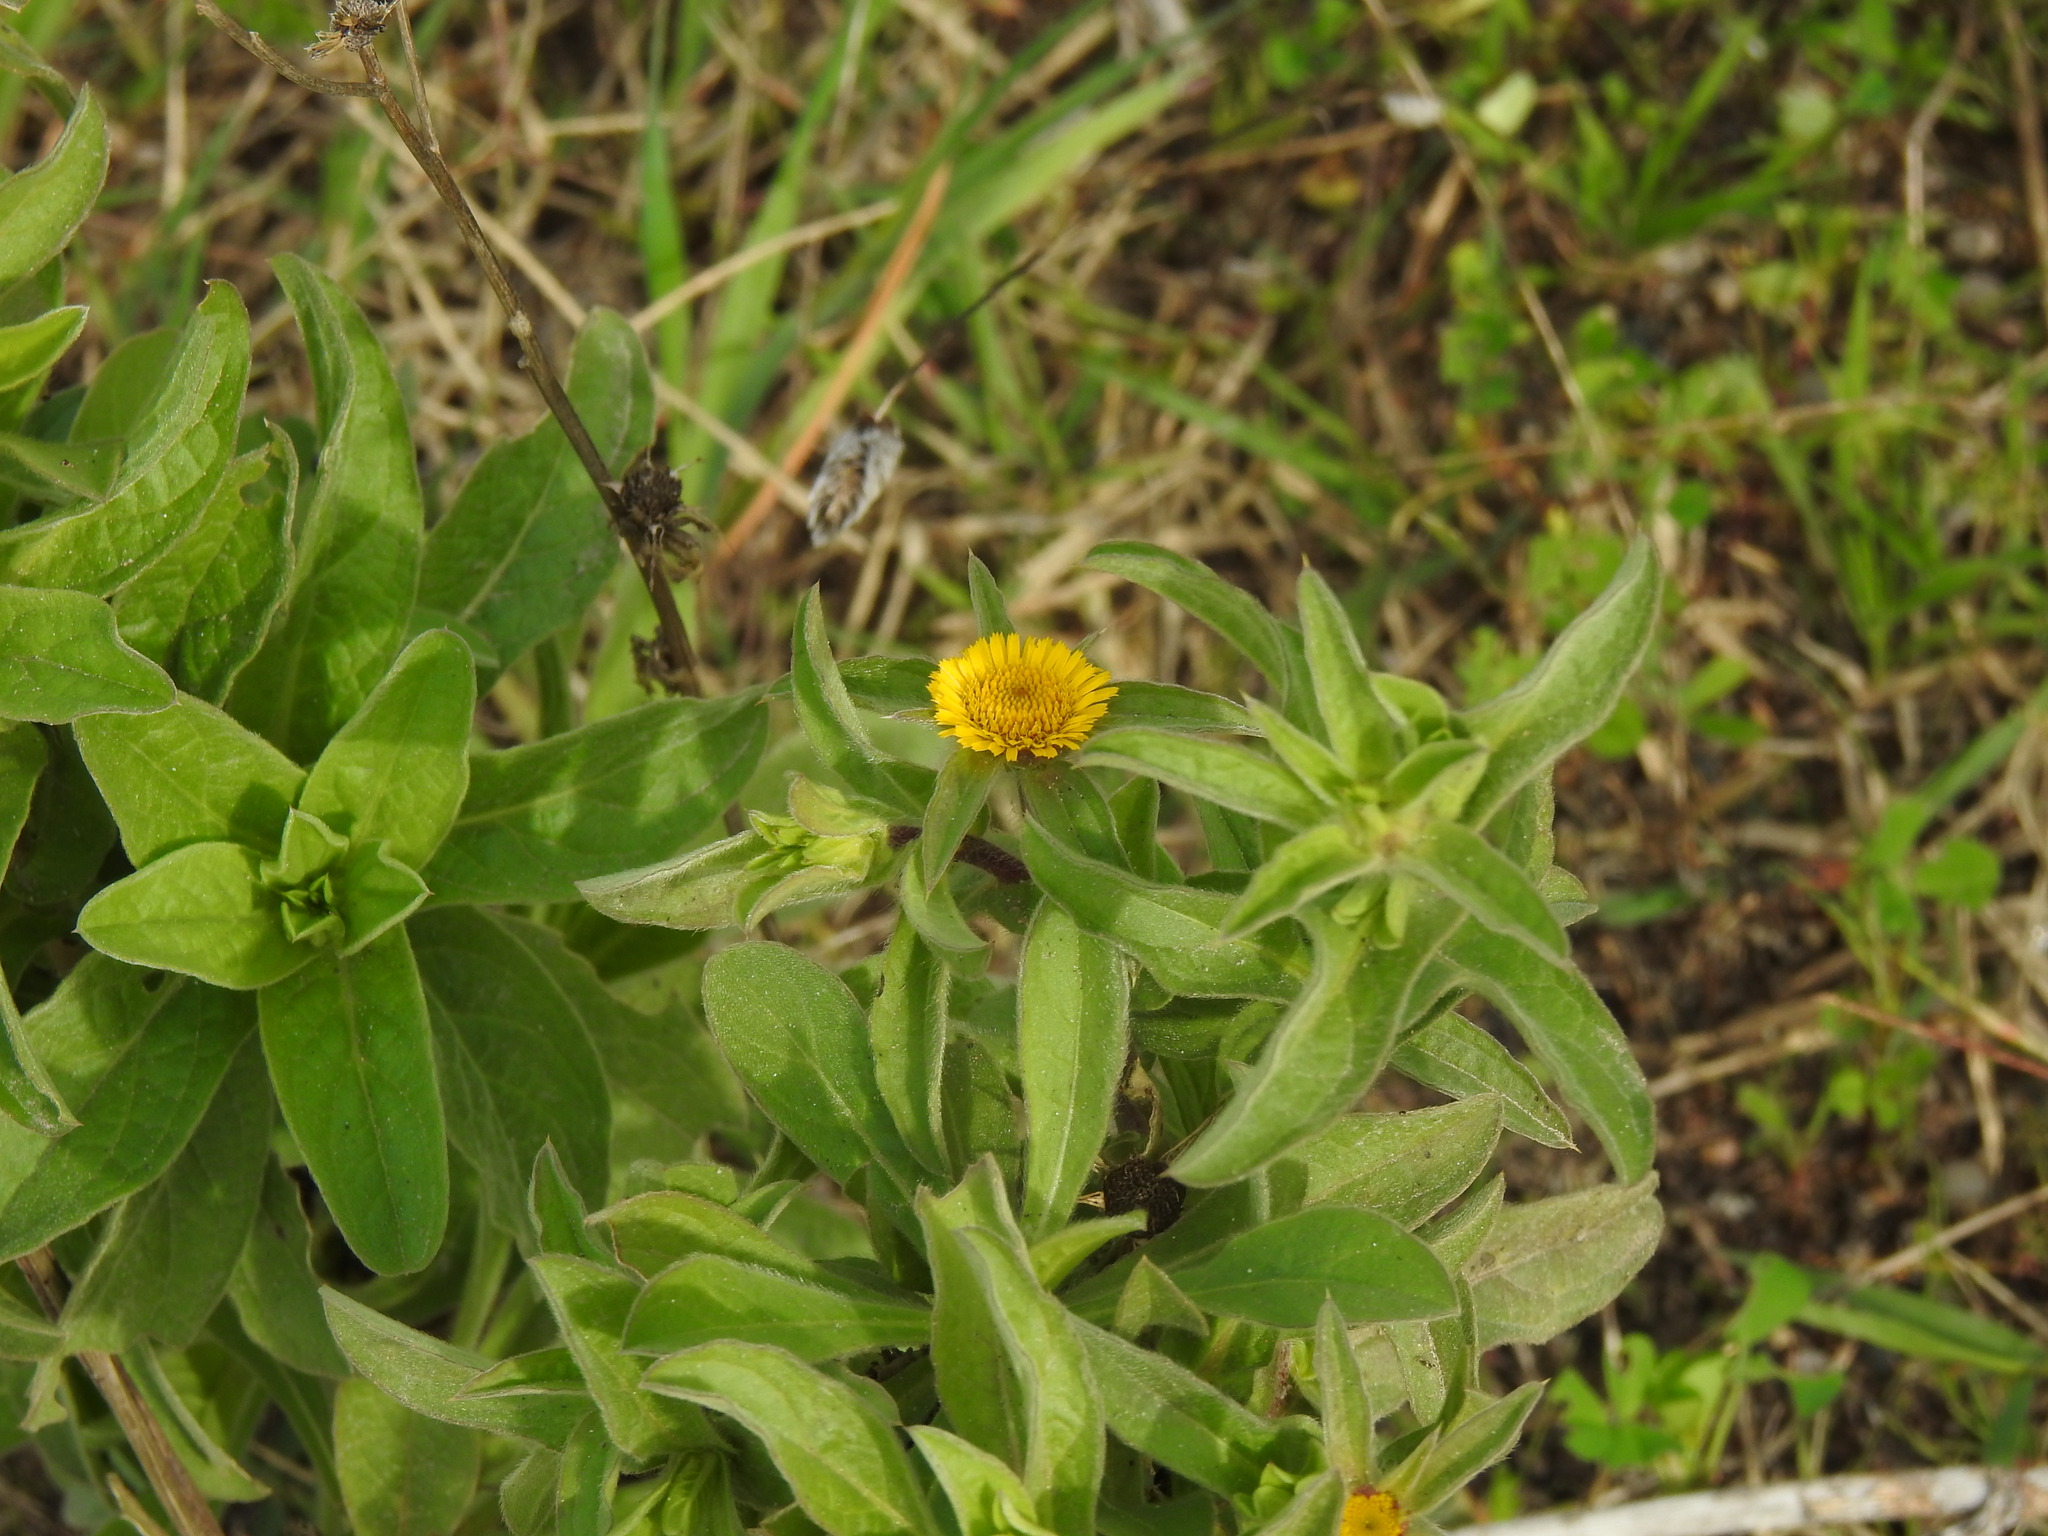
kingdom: Plantae
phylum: Tracheophyta
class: Magnoliopsida
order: Asterales
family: Asteraceae
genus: Pallenis
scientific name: Pallenis spinosa
